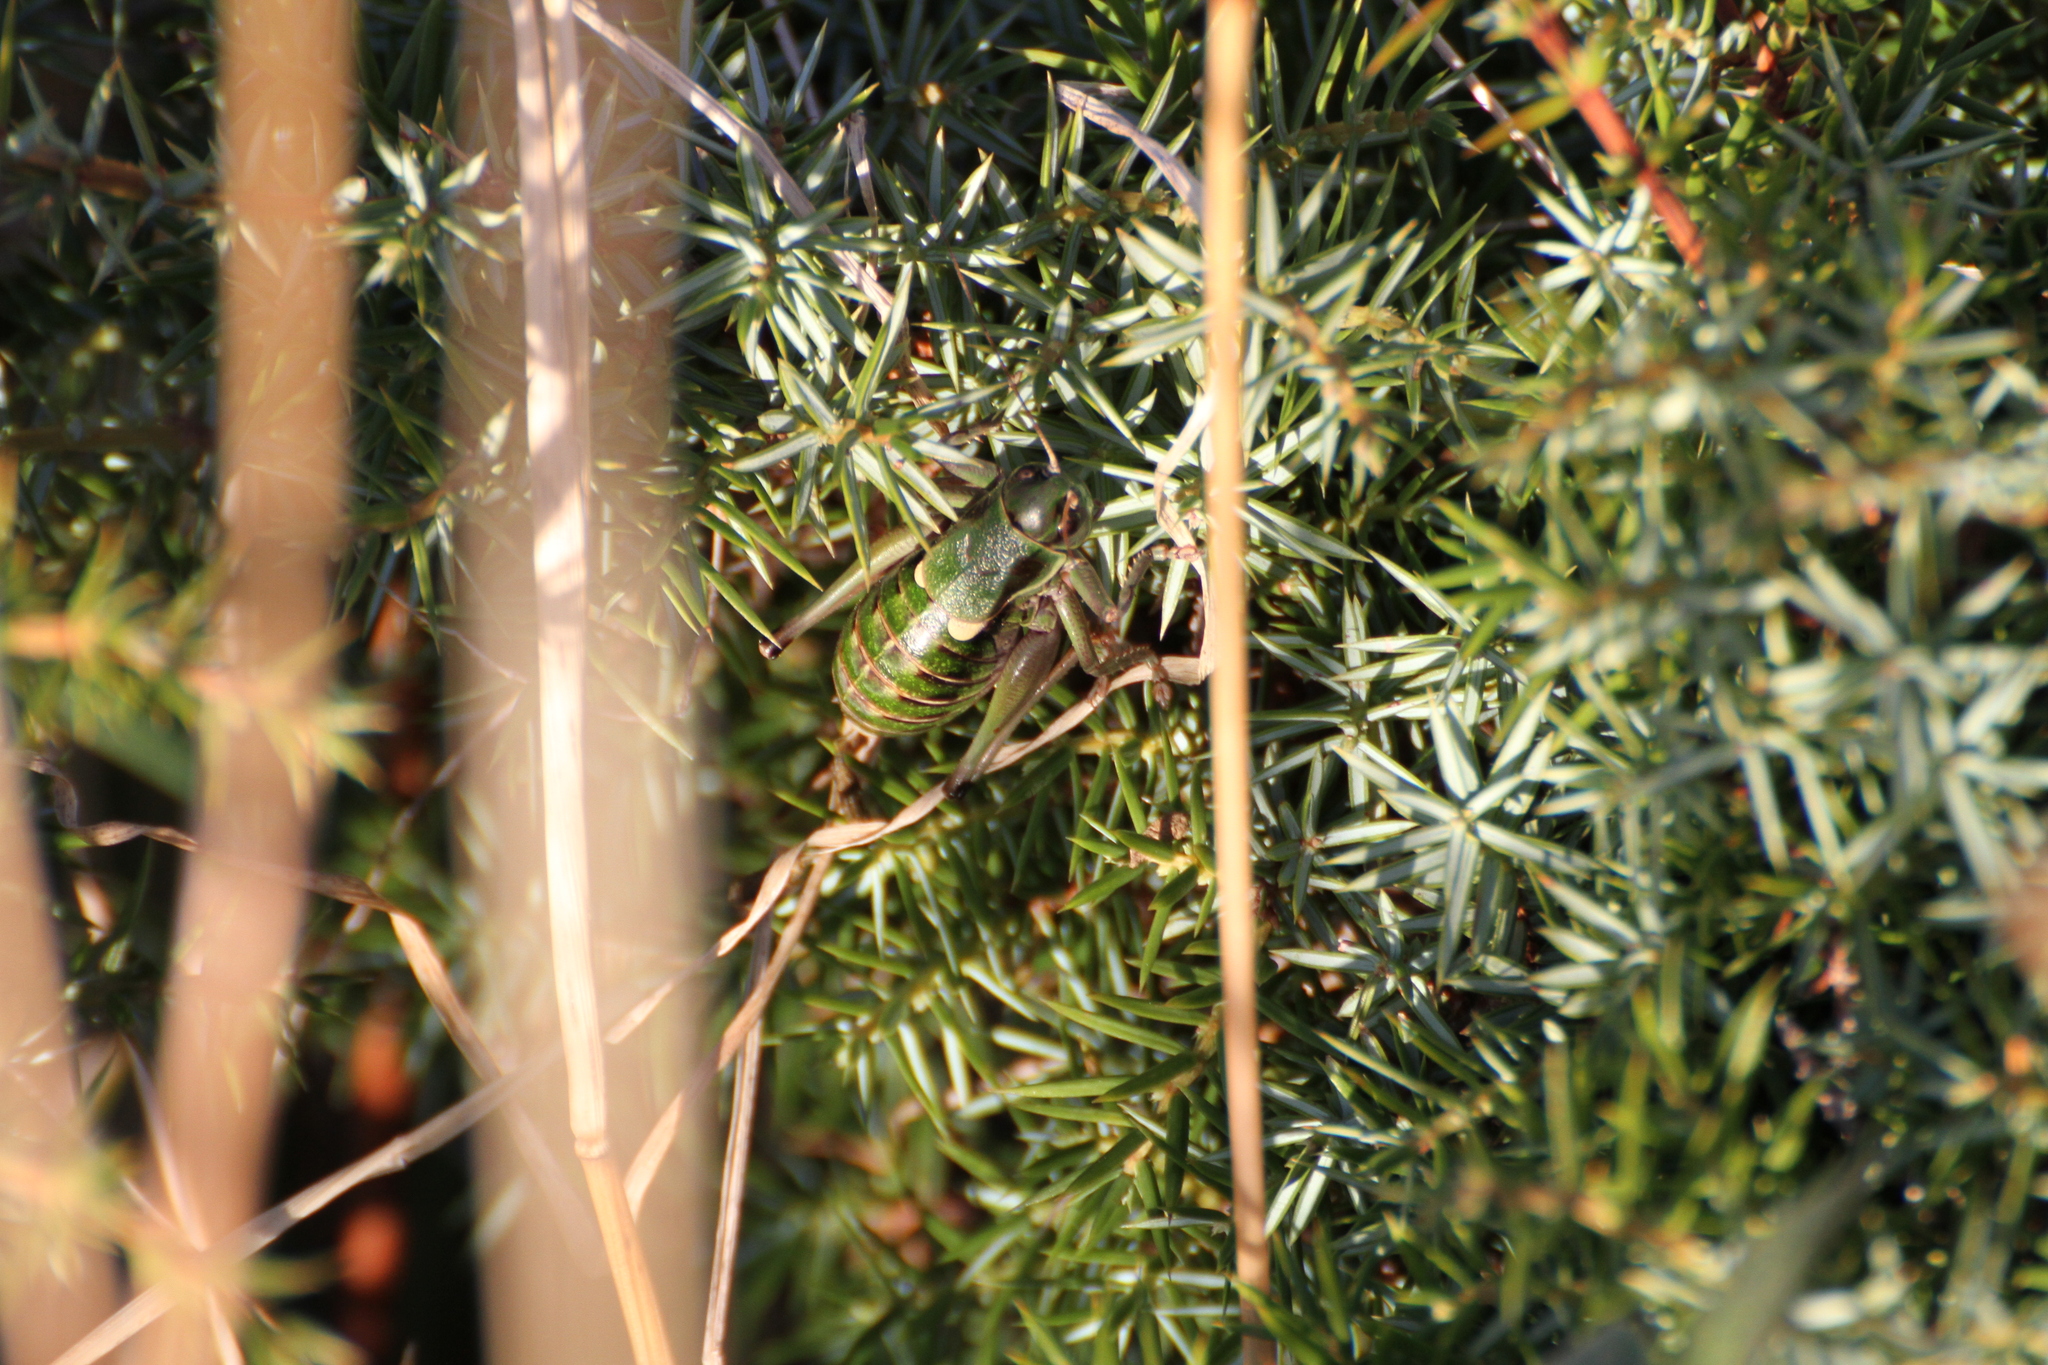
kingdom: Animalia
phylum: Arthropoda
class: Insecta
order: Orthoptera
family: Tettigoniidae
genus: Anonconotus
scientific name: Anonconotus ghilianii
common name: Ghiliani's alpine bush-cricket
